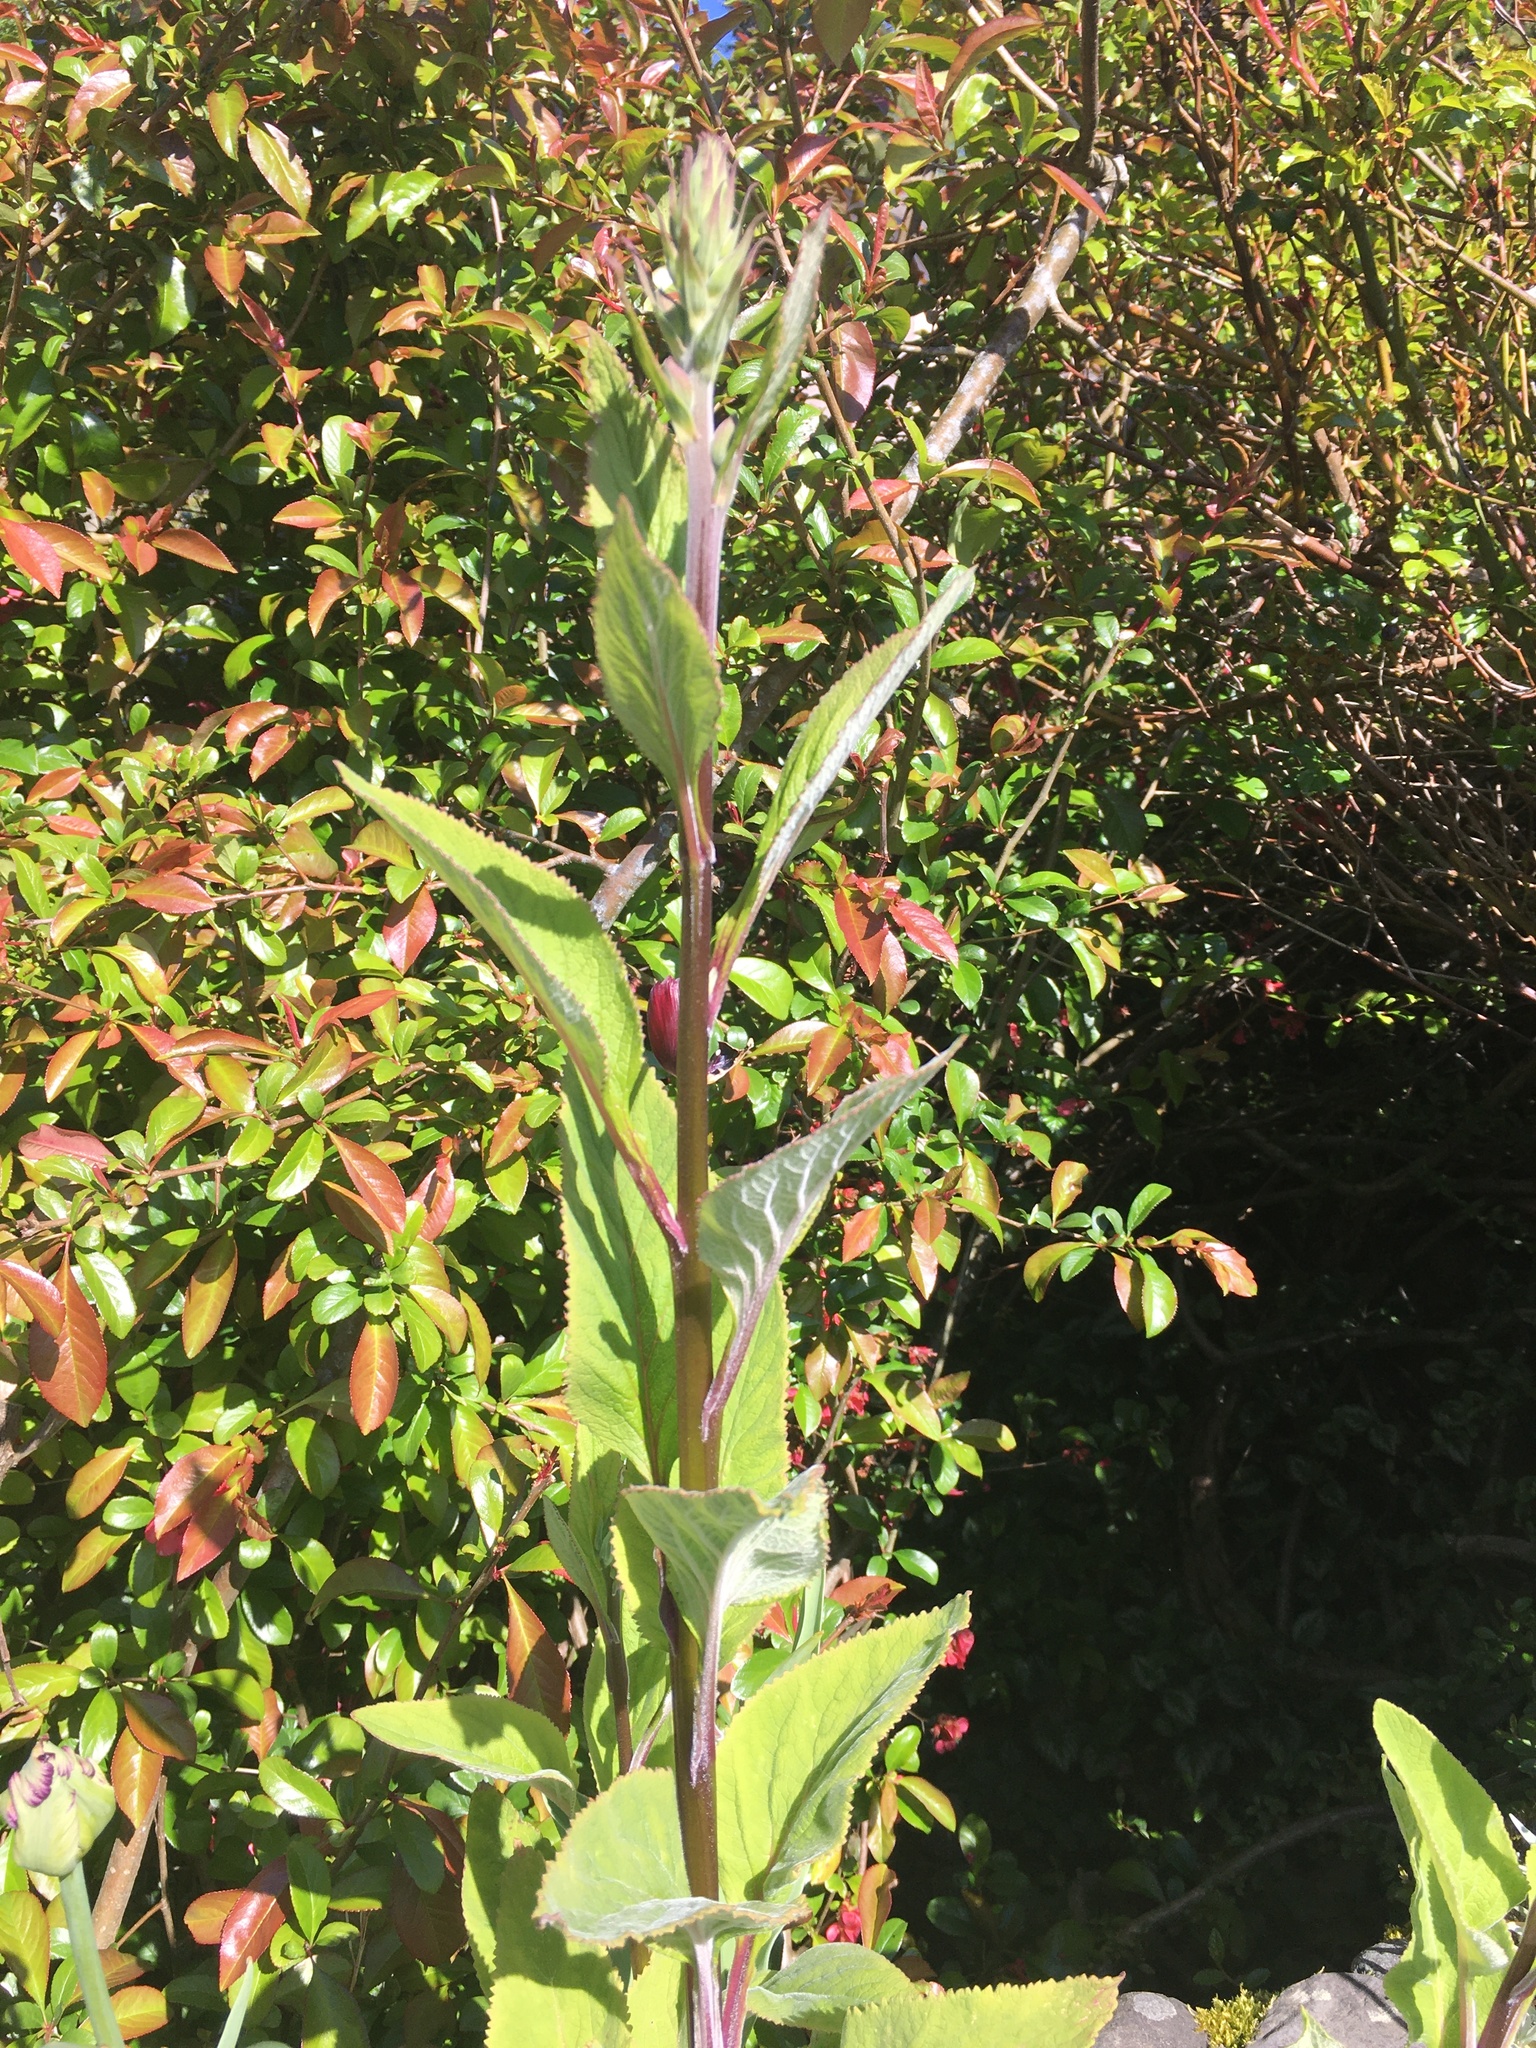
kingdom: Plantae
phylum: Tracheophyta
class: Magnoliopsida
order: Lamiales
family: Plantaginaceae
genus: Digitalis
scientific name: Digitalis purpurea
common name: Foxglove
